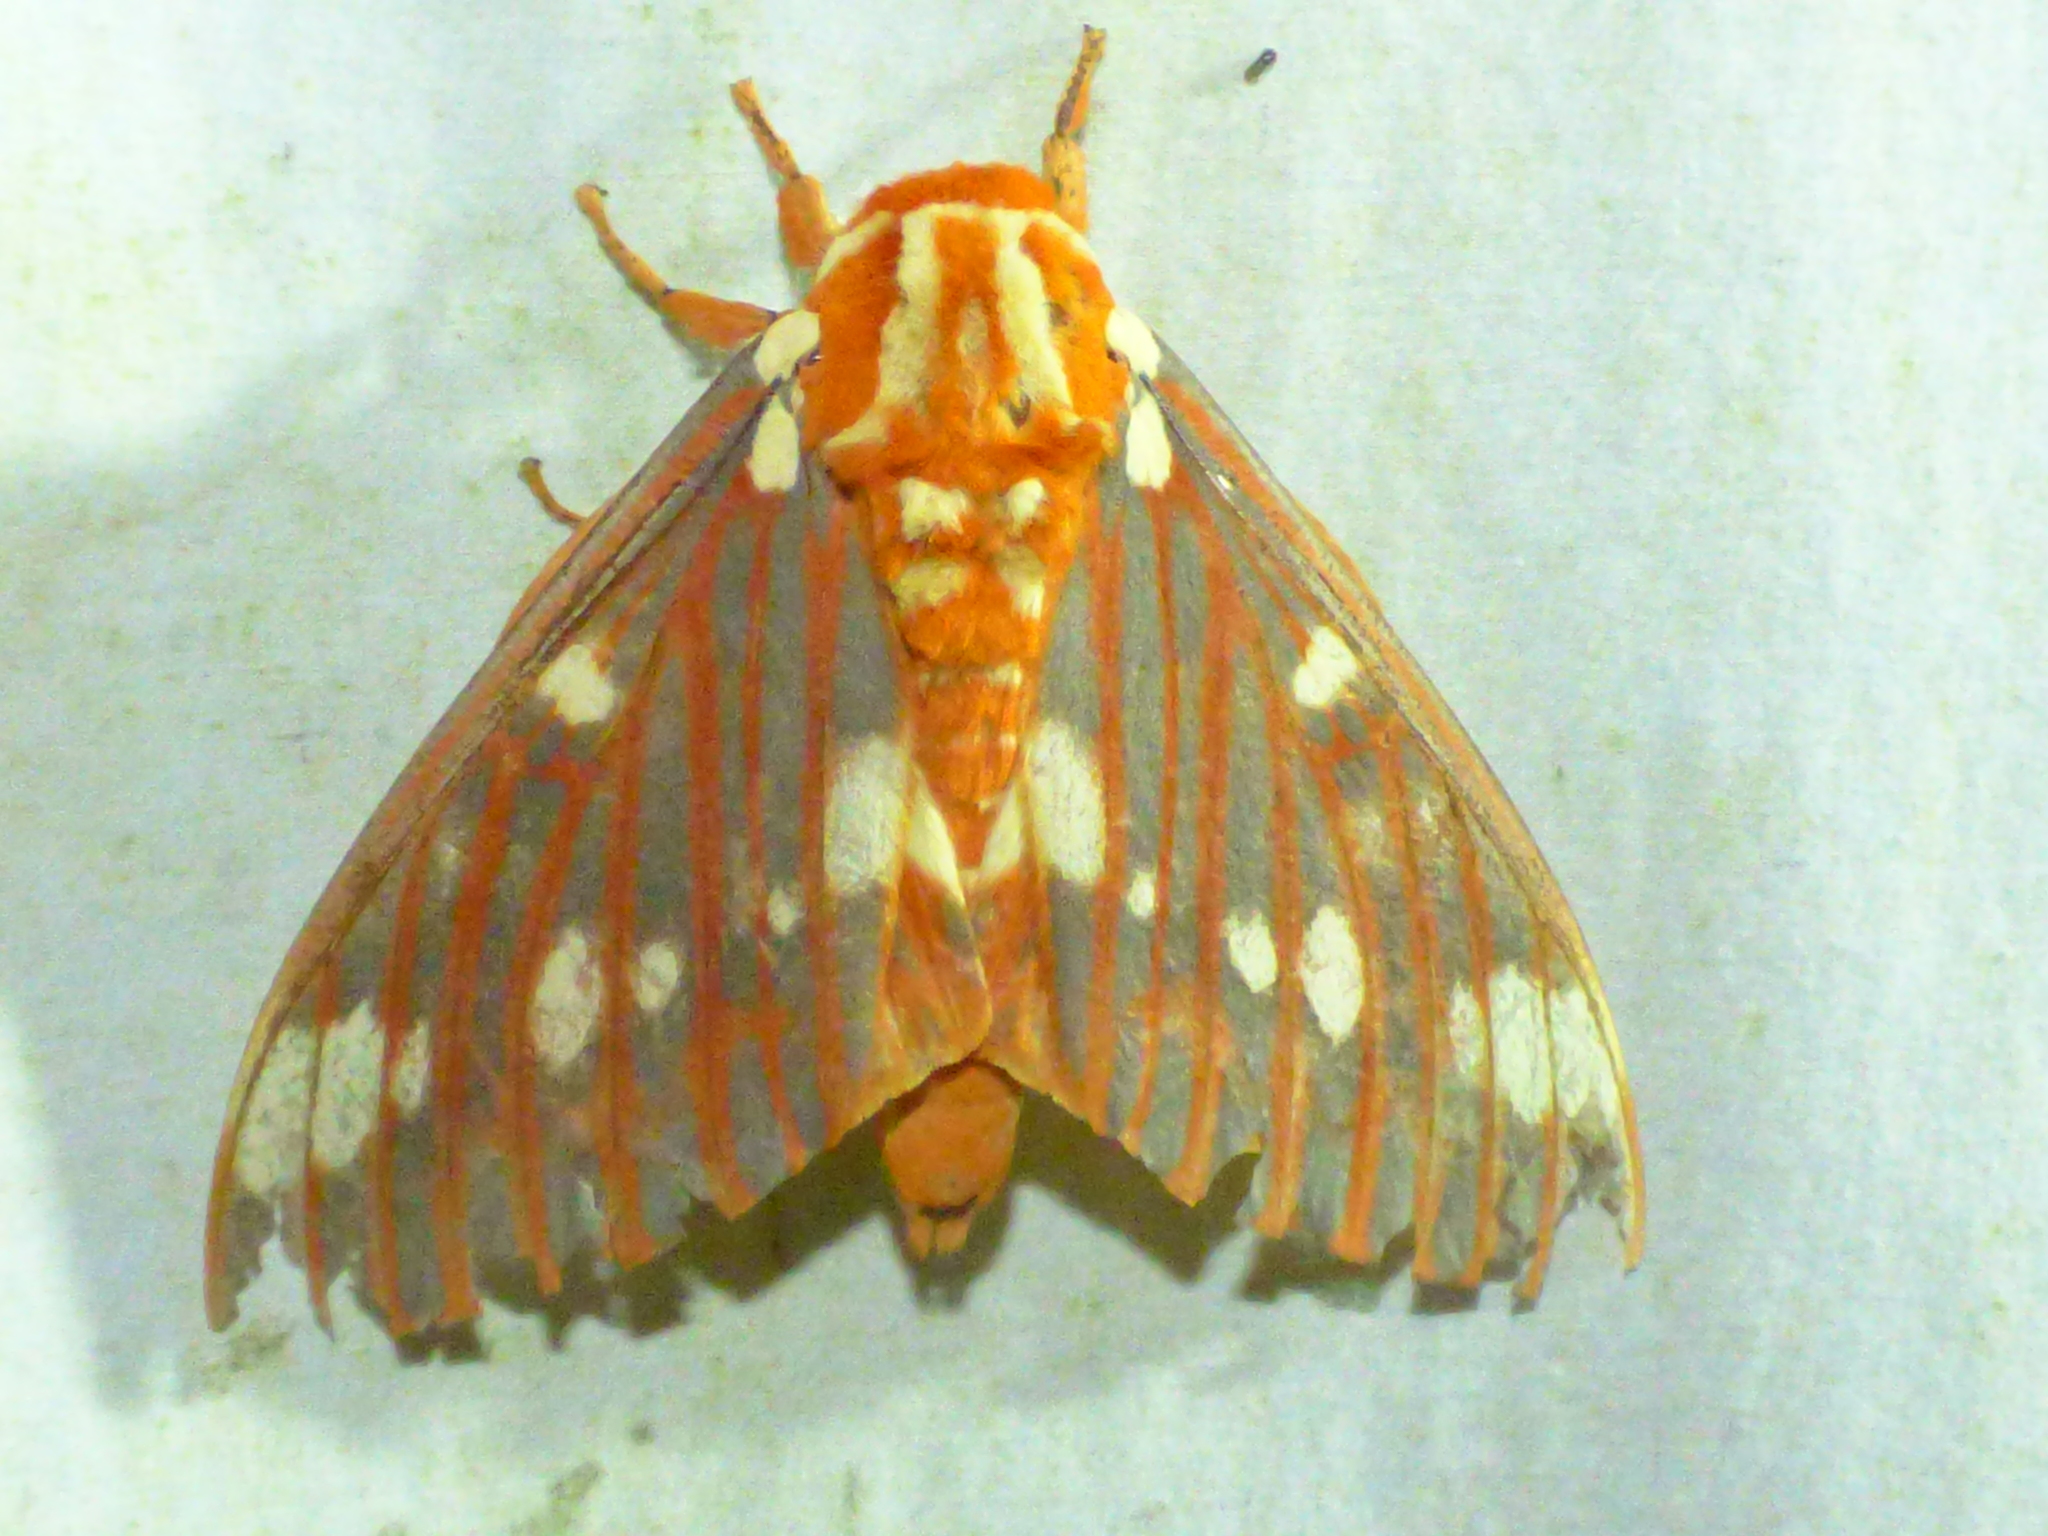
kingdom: Animalia
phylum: Arthropoda
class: Insecta
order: Lepidoptera
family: Saturniidae
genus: Citheronia
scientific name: Citheronia regalis
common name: Hickory horned devil
